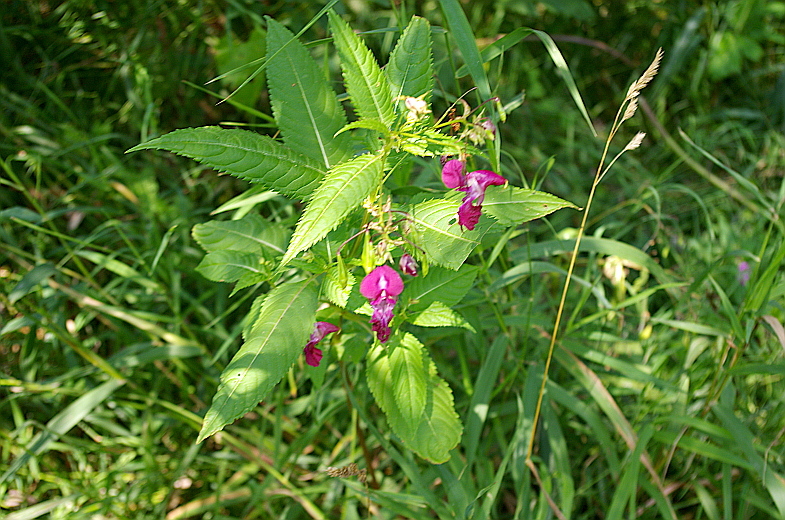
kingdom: Plantae
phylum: Tracheophyta
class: Magnoliopsida
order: Ericales
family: Balsaminaceae
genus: Impatiens
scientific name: Impatiens glandulifera
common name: Himalayan balsam
